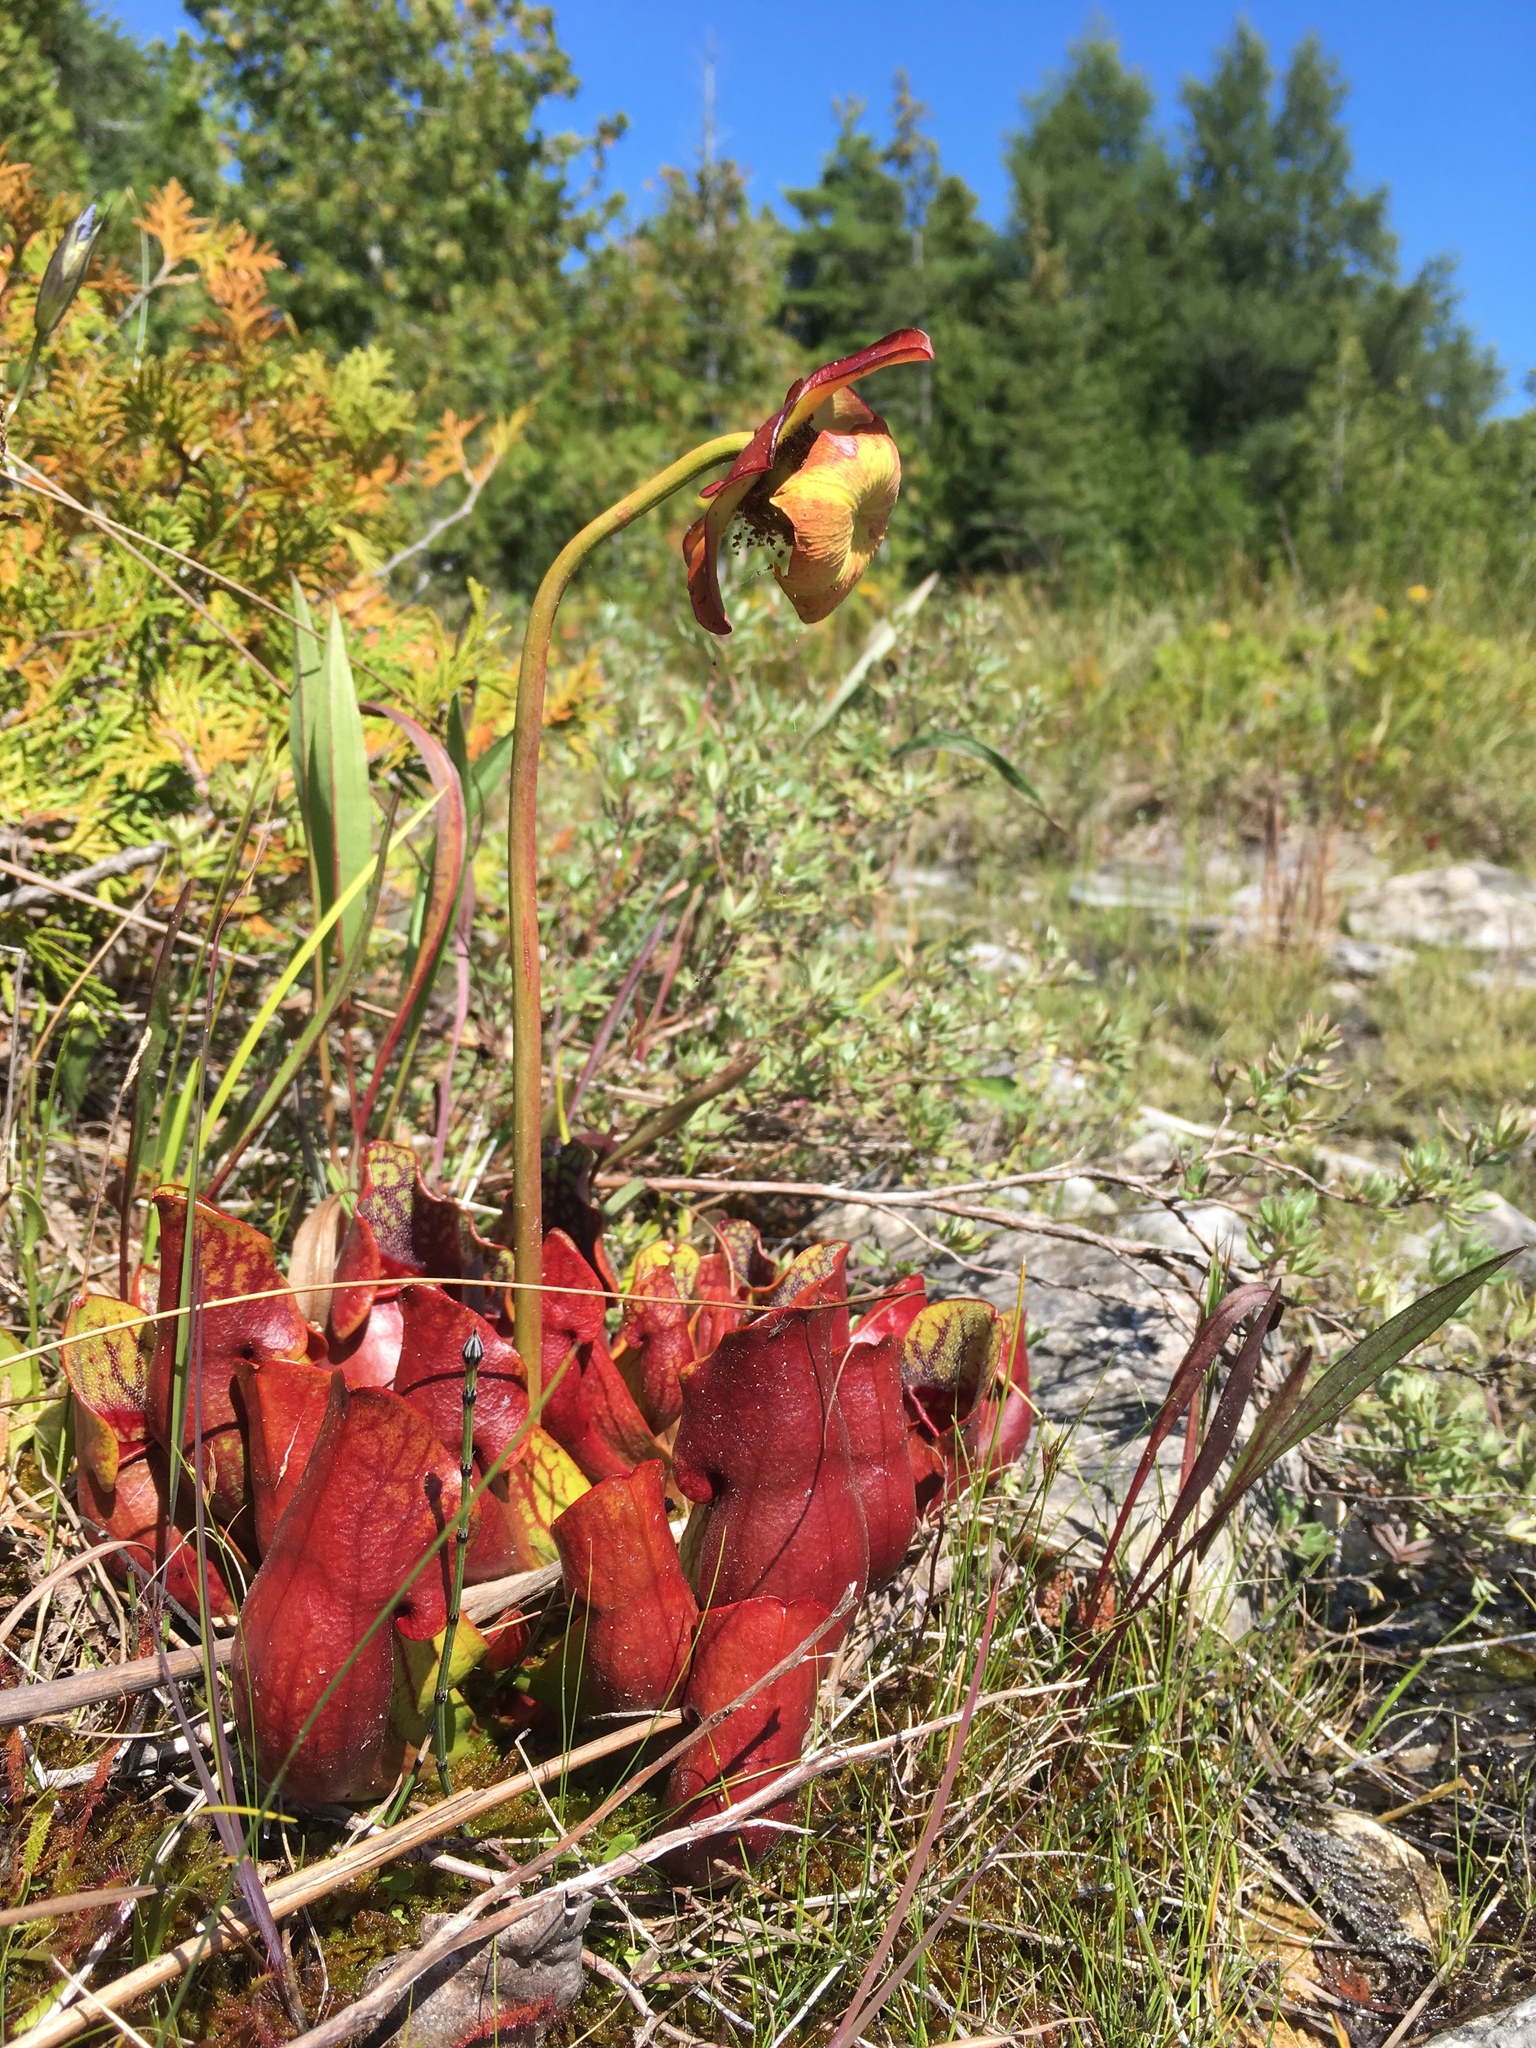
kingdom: Plantae
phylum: Tracheophyta
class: Magnoliopsida
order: Ericales
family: Sarraceniaceae
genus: Sarracenia
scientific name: Sarracenia purpurea
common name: Pitcherplant
